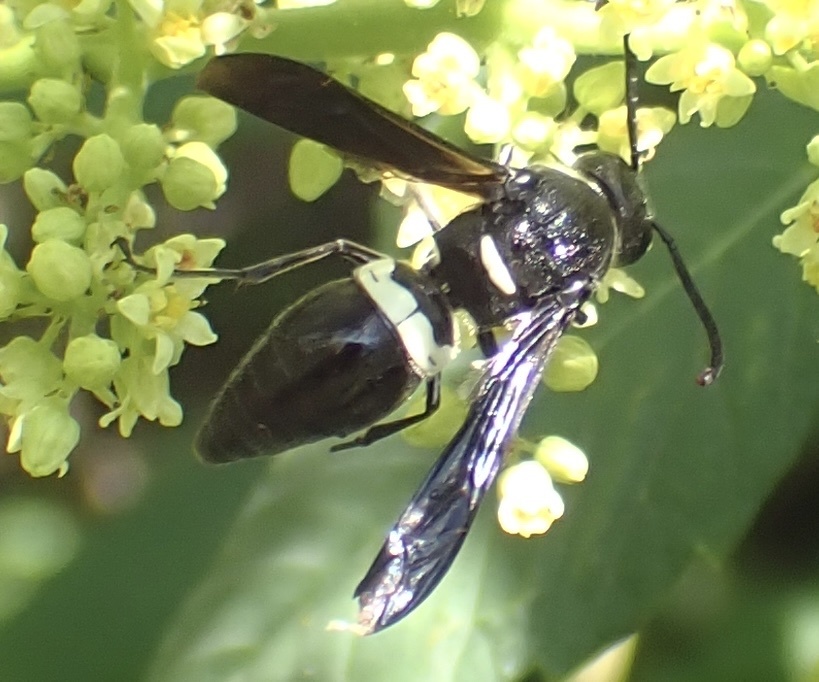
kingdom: Animalia
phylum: Arthropoda
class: Insecta
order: Hymenoptera
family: Eumenidae
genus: Monobia
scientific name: Monobia quadridens
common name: Four-toothed mason wasp
